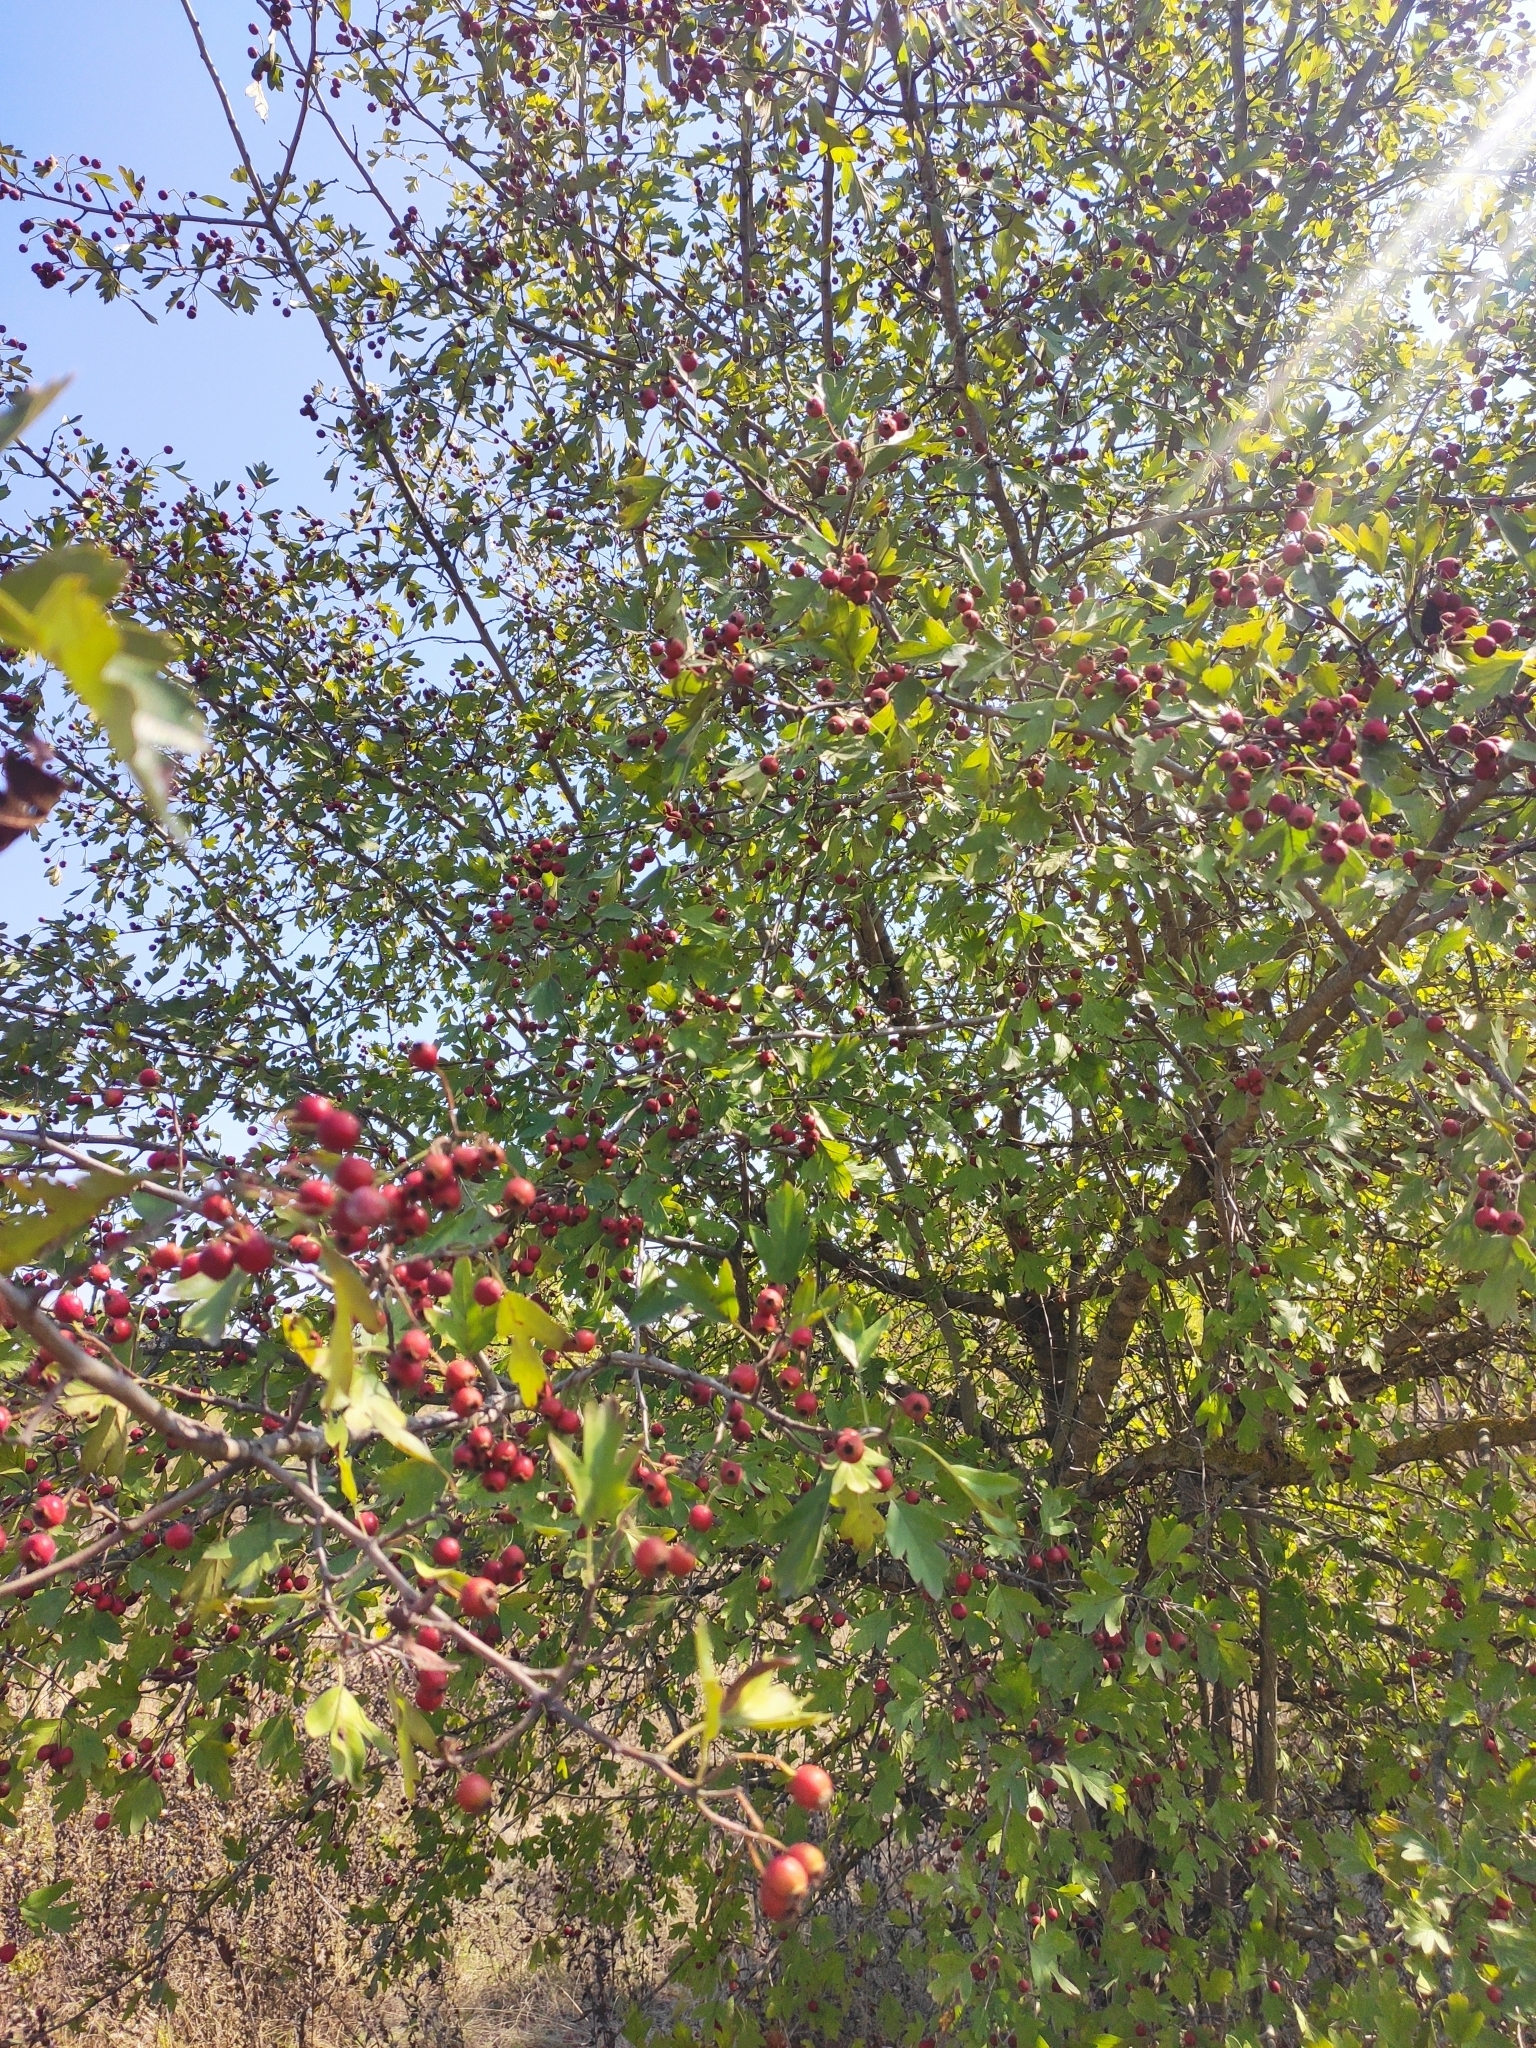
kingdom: Plantae
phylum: Tracheophyta
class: Magnoliopsida
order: Rosales
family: Rosaceae
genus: Crataegus
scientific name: Crataegus monogyna
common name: Hawthorn
